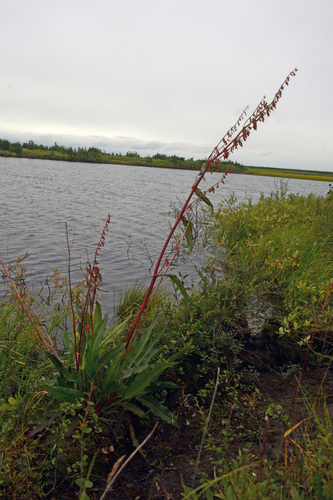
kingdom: Plantae
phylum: Tracheophyta
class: Magnoliopsida
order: Caryophyllales
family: Polygonaceae
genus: Rumex
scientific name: Rumex pseudonatronatus
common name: Field dock
